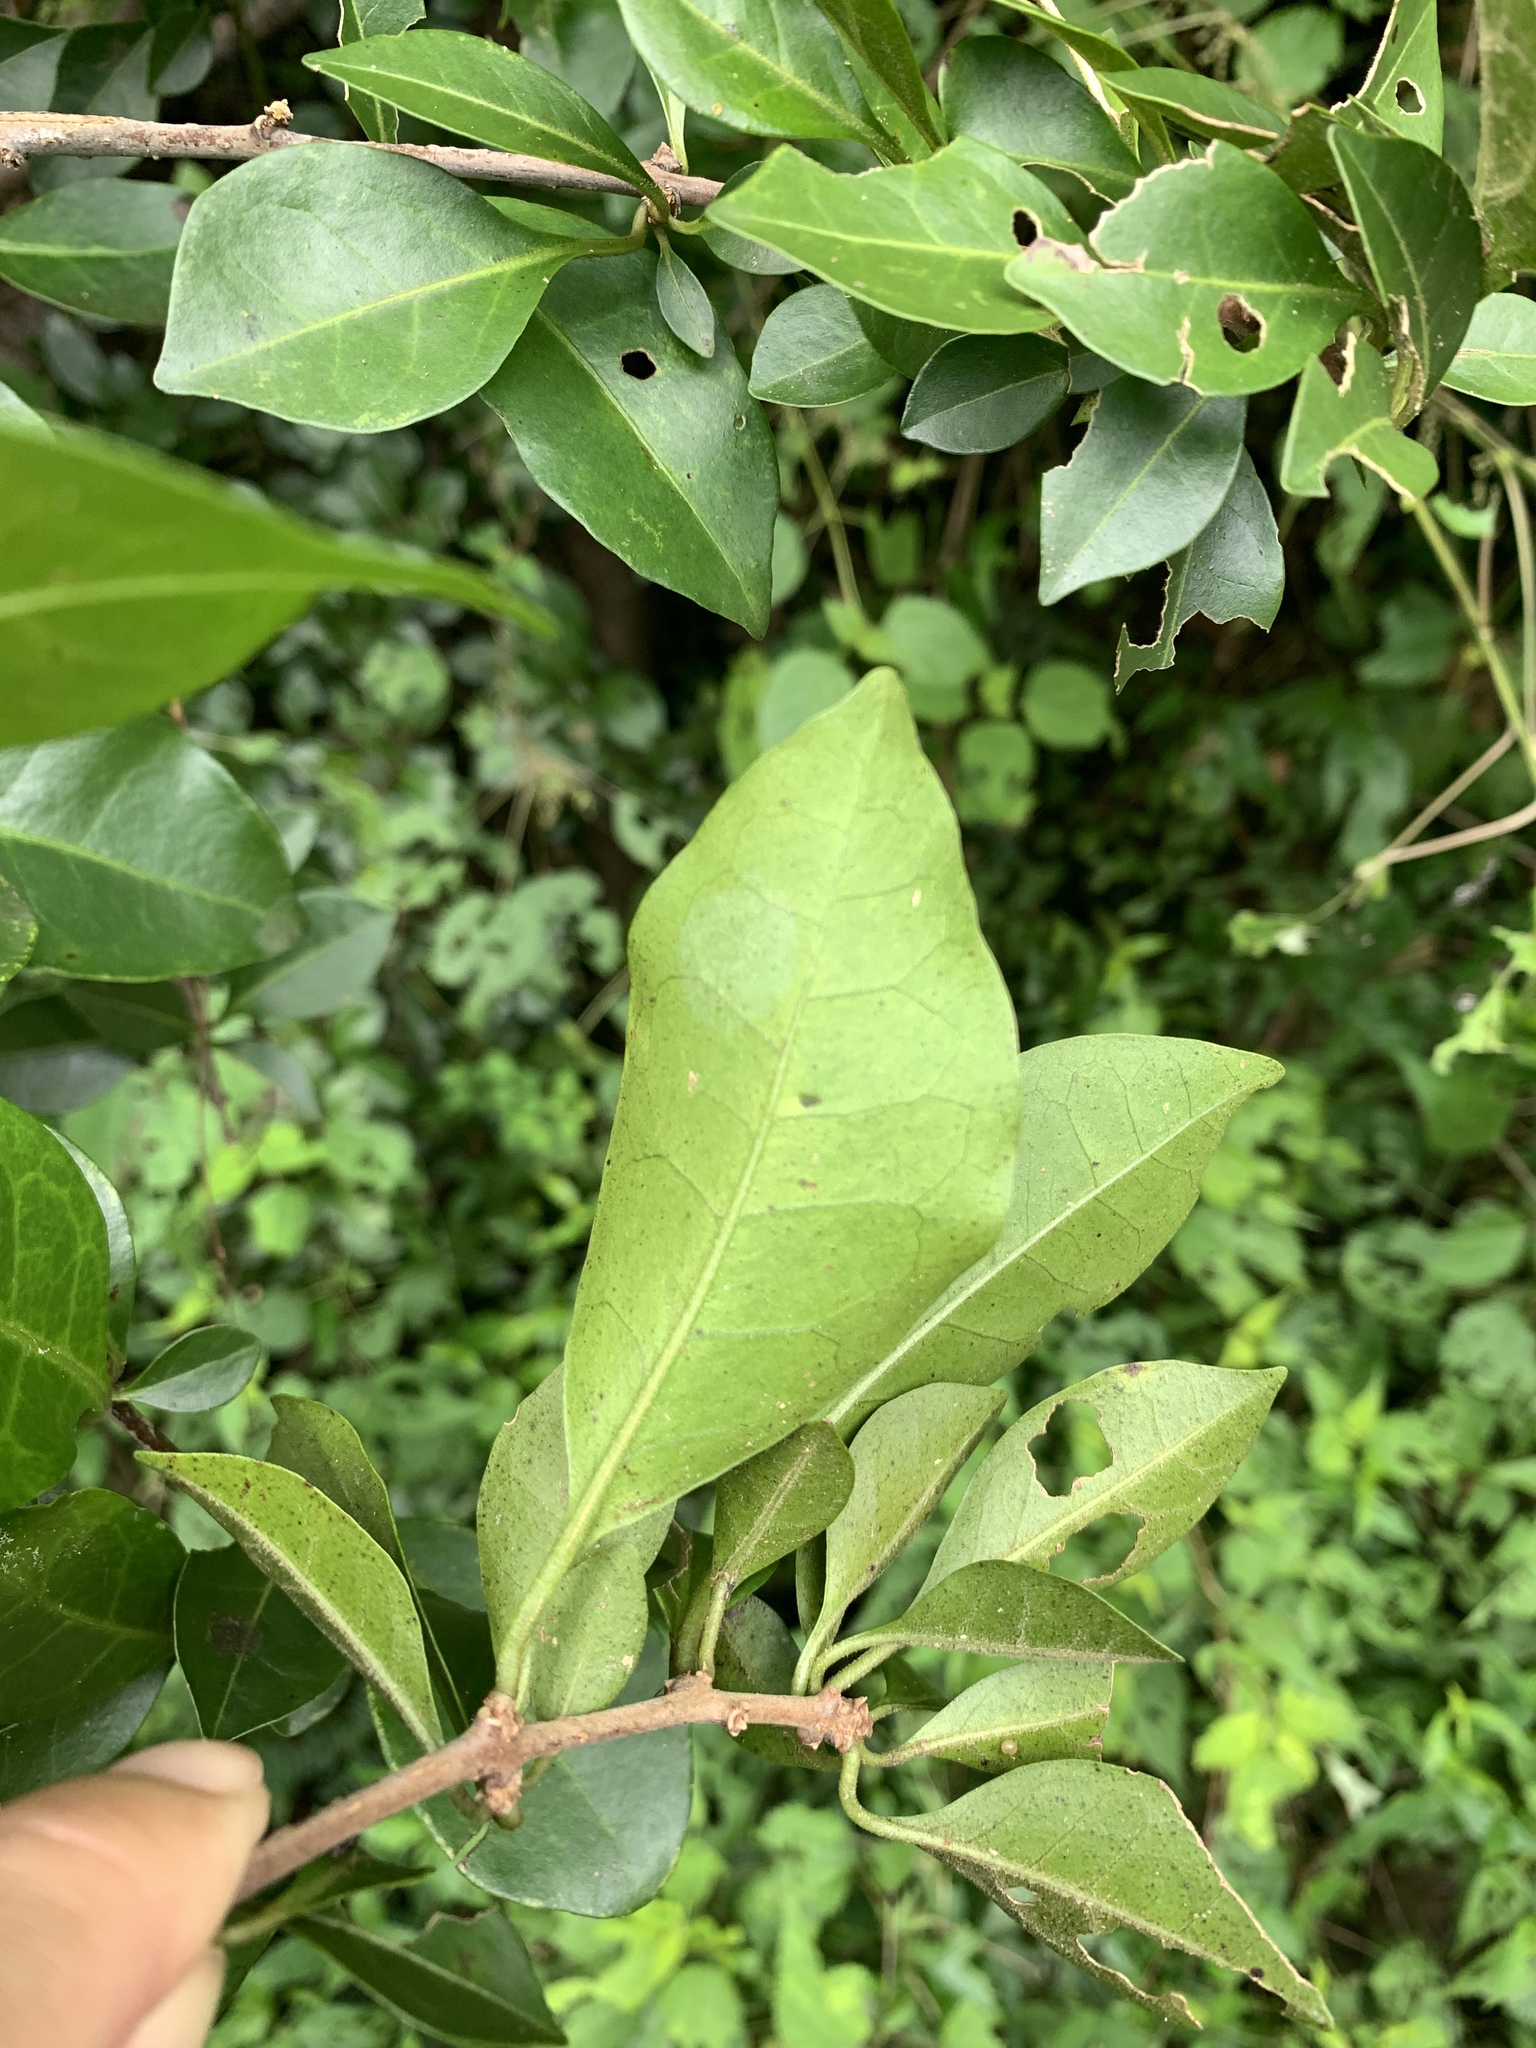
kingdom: Plantae
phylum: Tracheophyta
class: Magnoliopsida
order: Caryophyllales
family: Nyctaginaceae
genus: Pisonia
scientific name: Pisonia aculeata
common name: Cockspur vine
